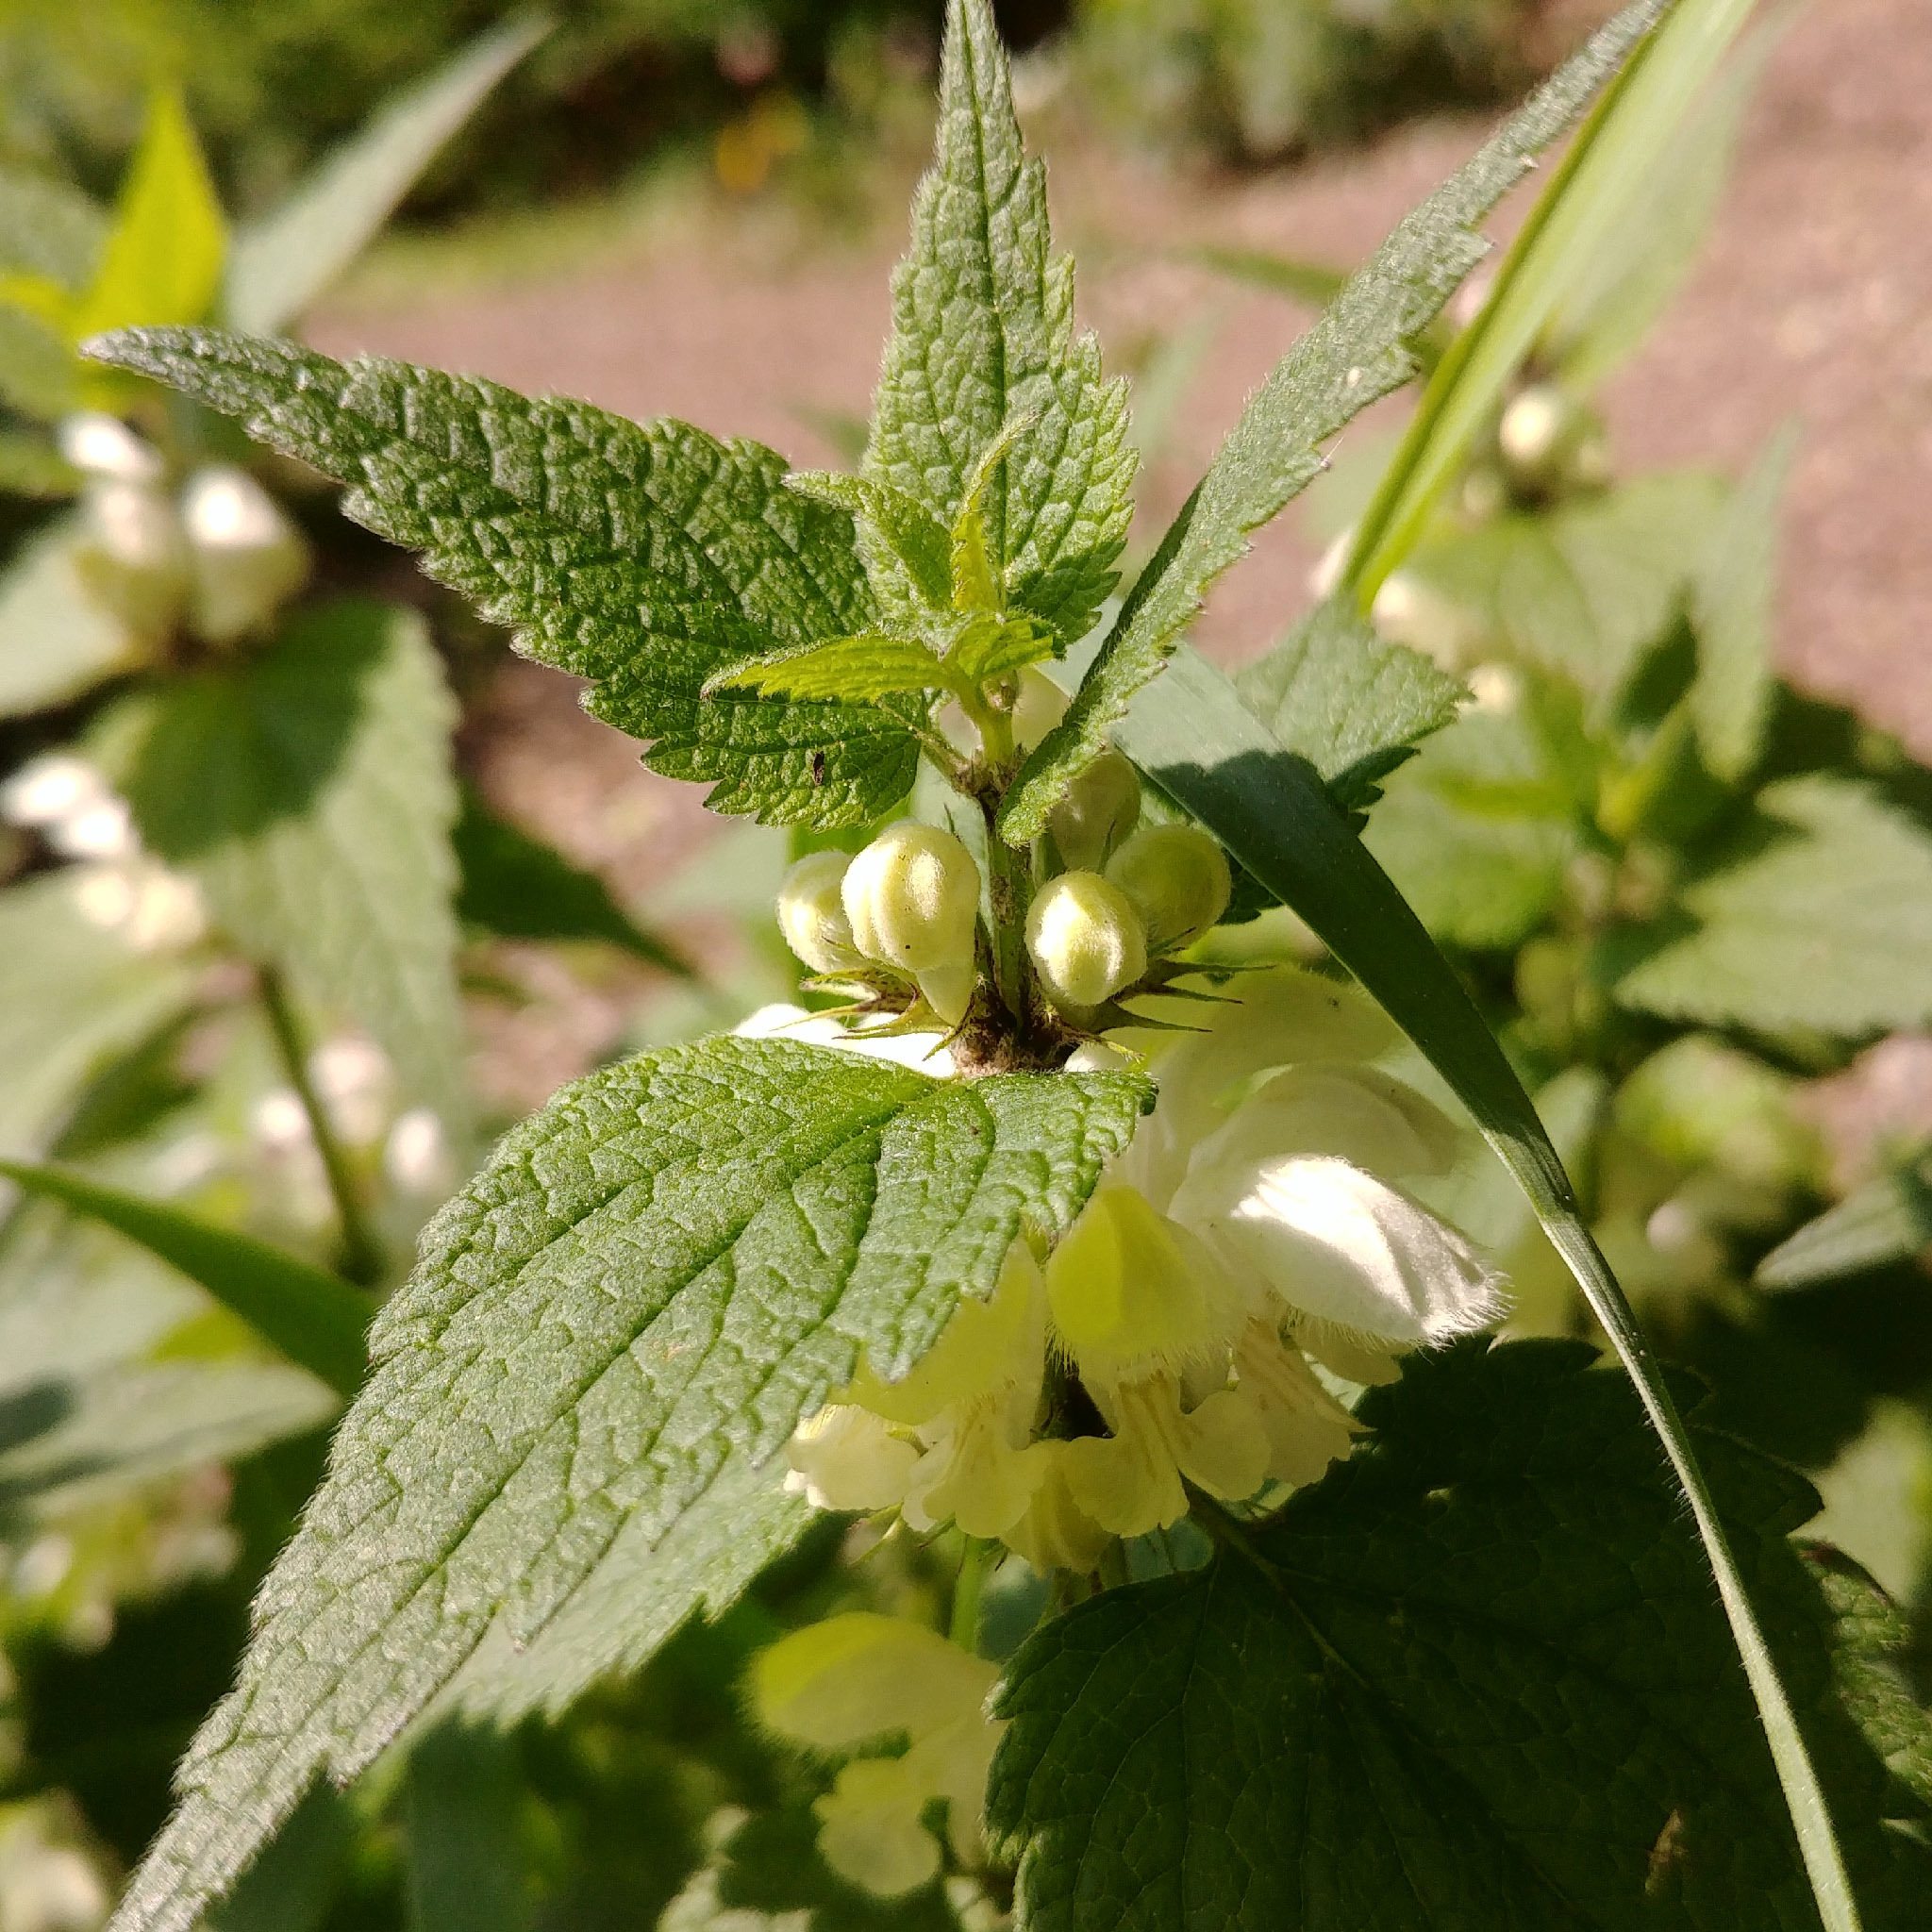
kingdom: Plantae
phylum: Tracheophyta
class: Magnoliopsida
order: Lamiales
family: Lamiaceae
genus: Lamium
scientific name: Lamium album
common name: White dead-nettle
